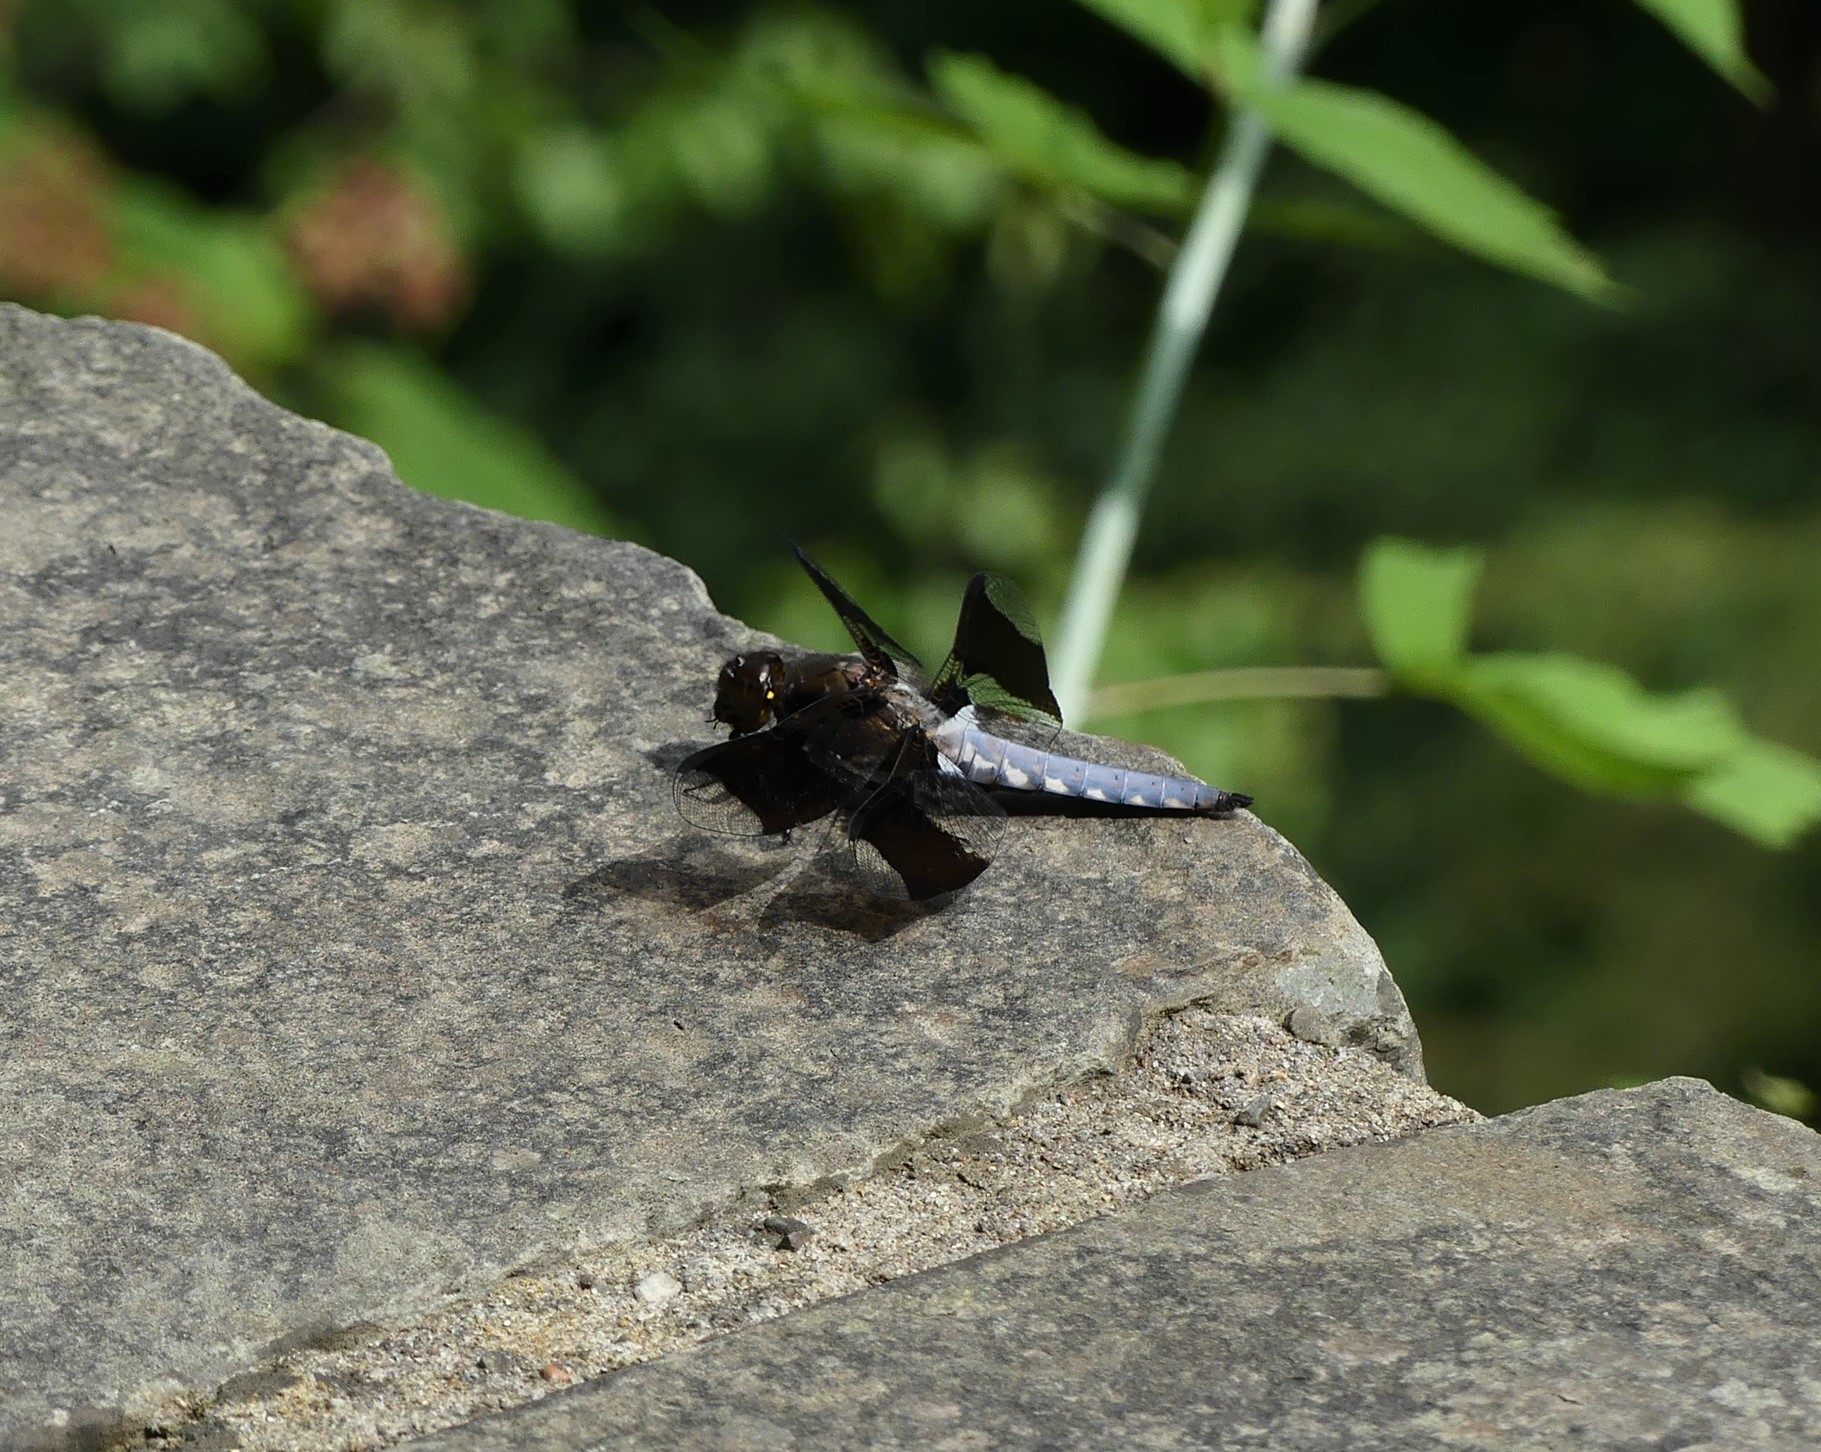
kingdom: Animalia
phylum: Arthropoda
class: Insecta
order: Odonata
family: Libellulidae
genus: Plathemis
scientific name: Plathemis lydia
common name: Common whitetail
